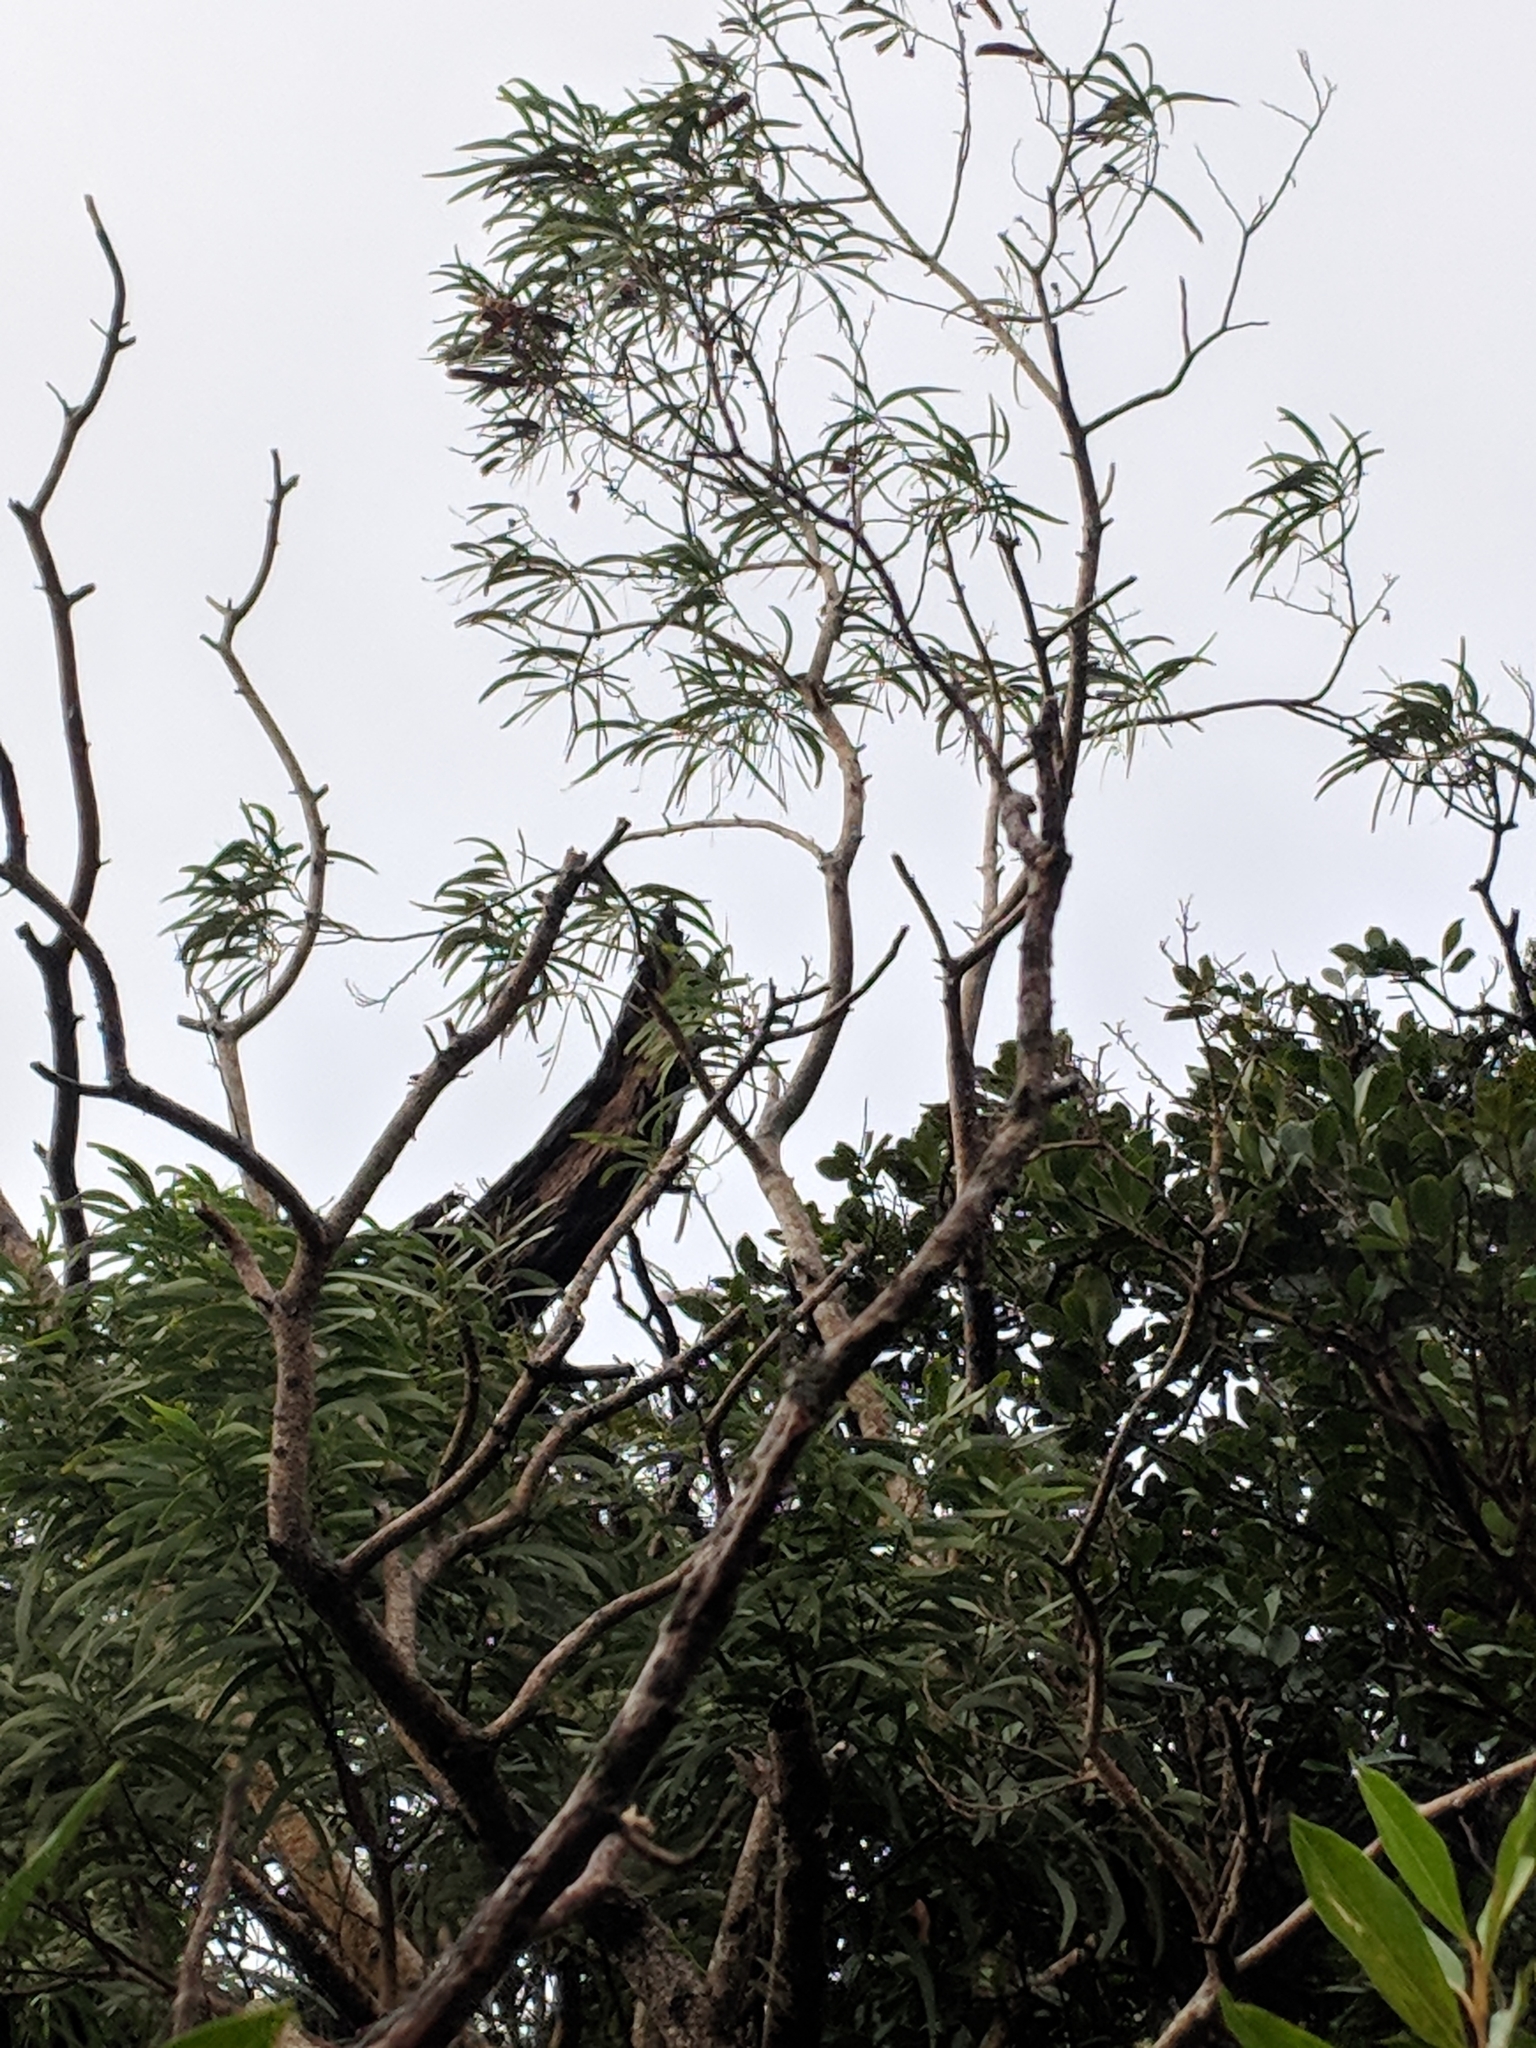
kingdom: Plantae
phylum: Tracheophyta
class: Magnoliopsida
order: Fabales
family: Fabaceae
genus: Acacia
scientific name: Acacia koa
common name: Gray koa
